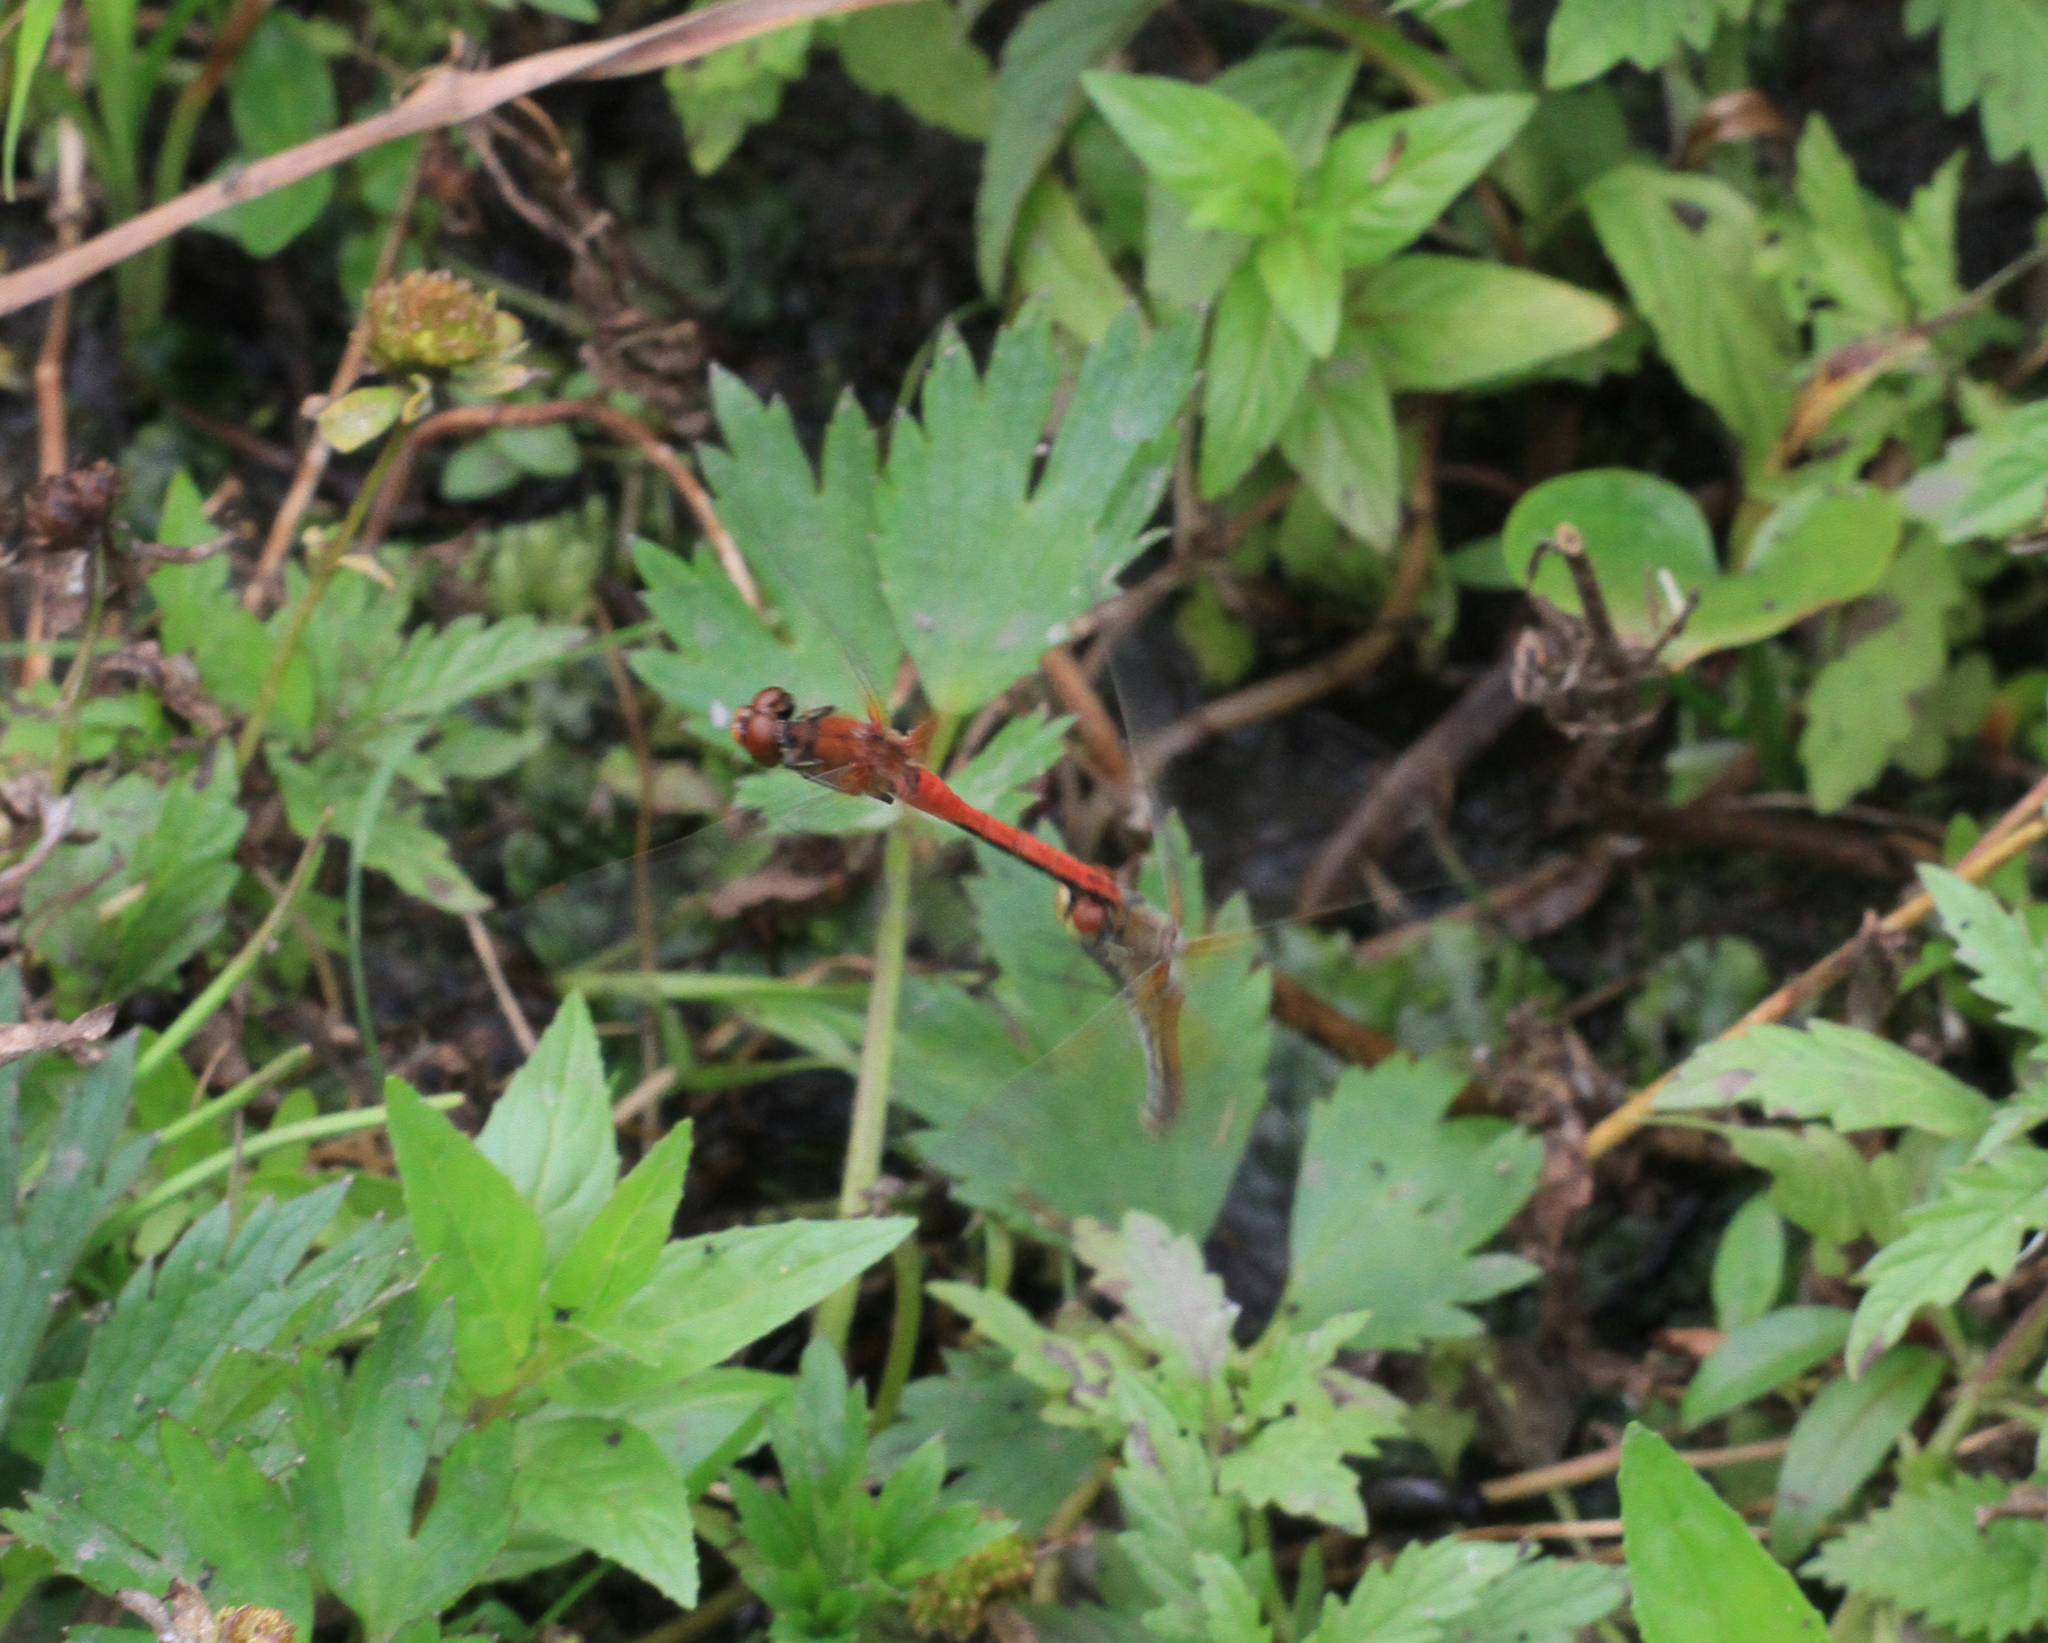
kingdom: Animalia
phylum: Arthropoda
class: Insecta
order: Odonata
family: Libellulidae
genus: Sympetrum
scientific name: Sympetrum flaveolum
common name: Yellow-winged darter
